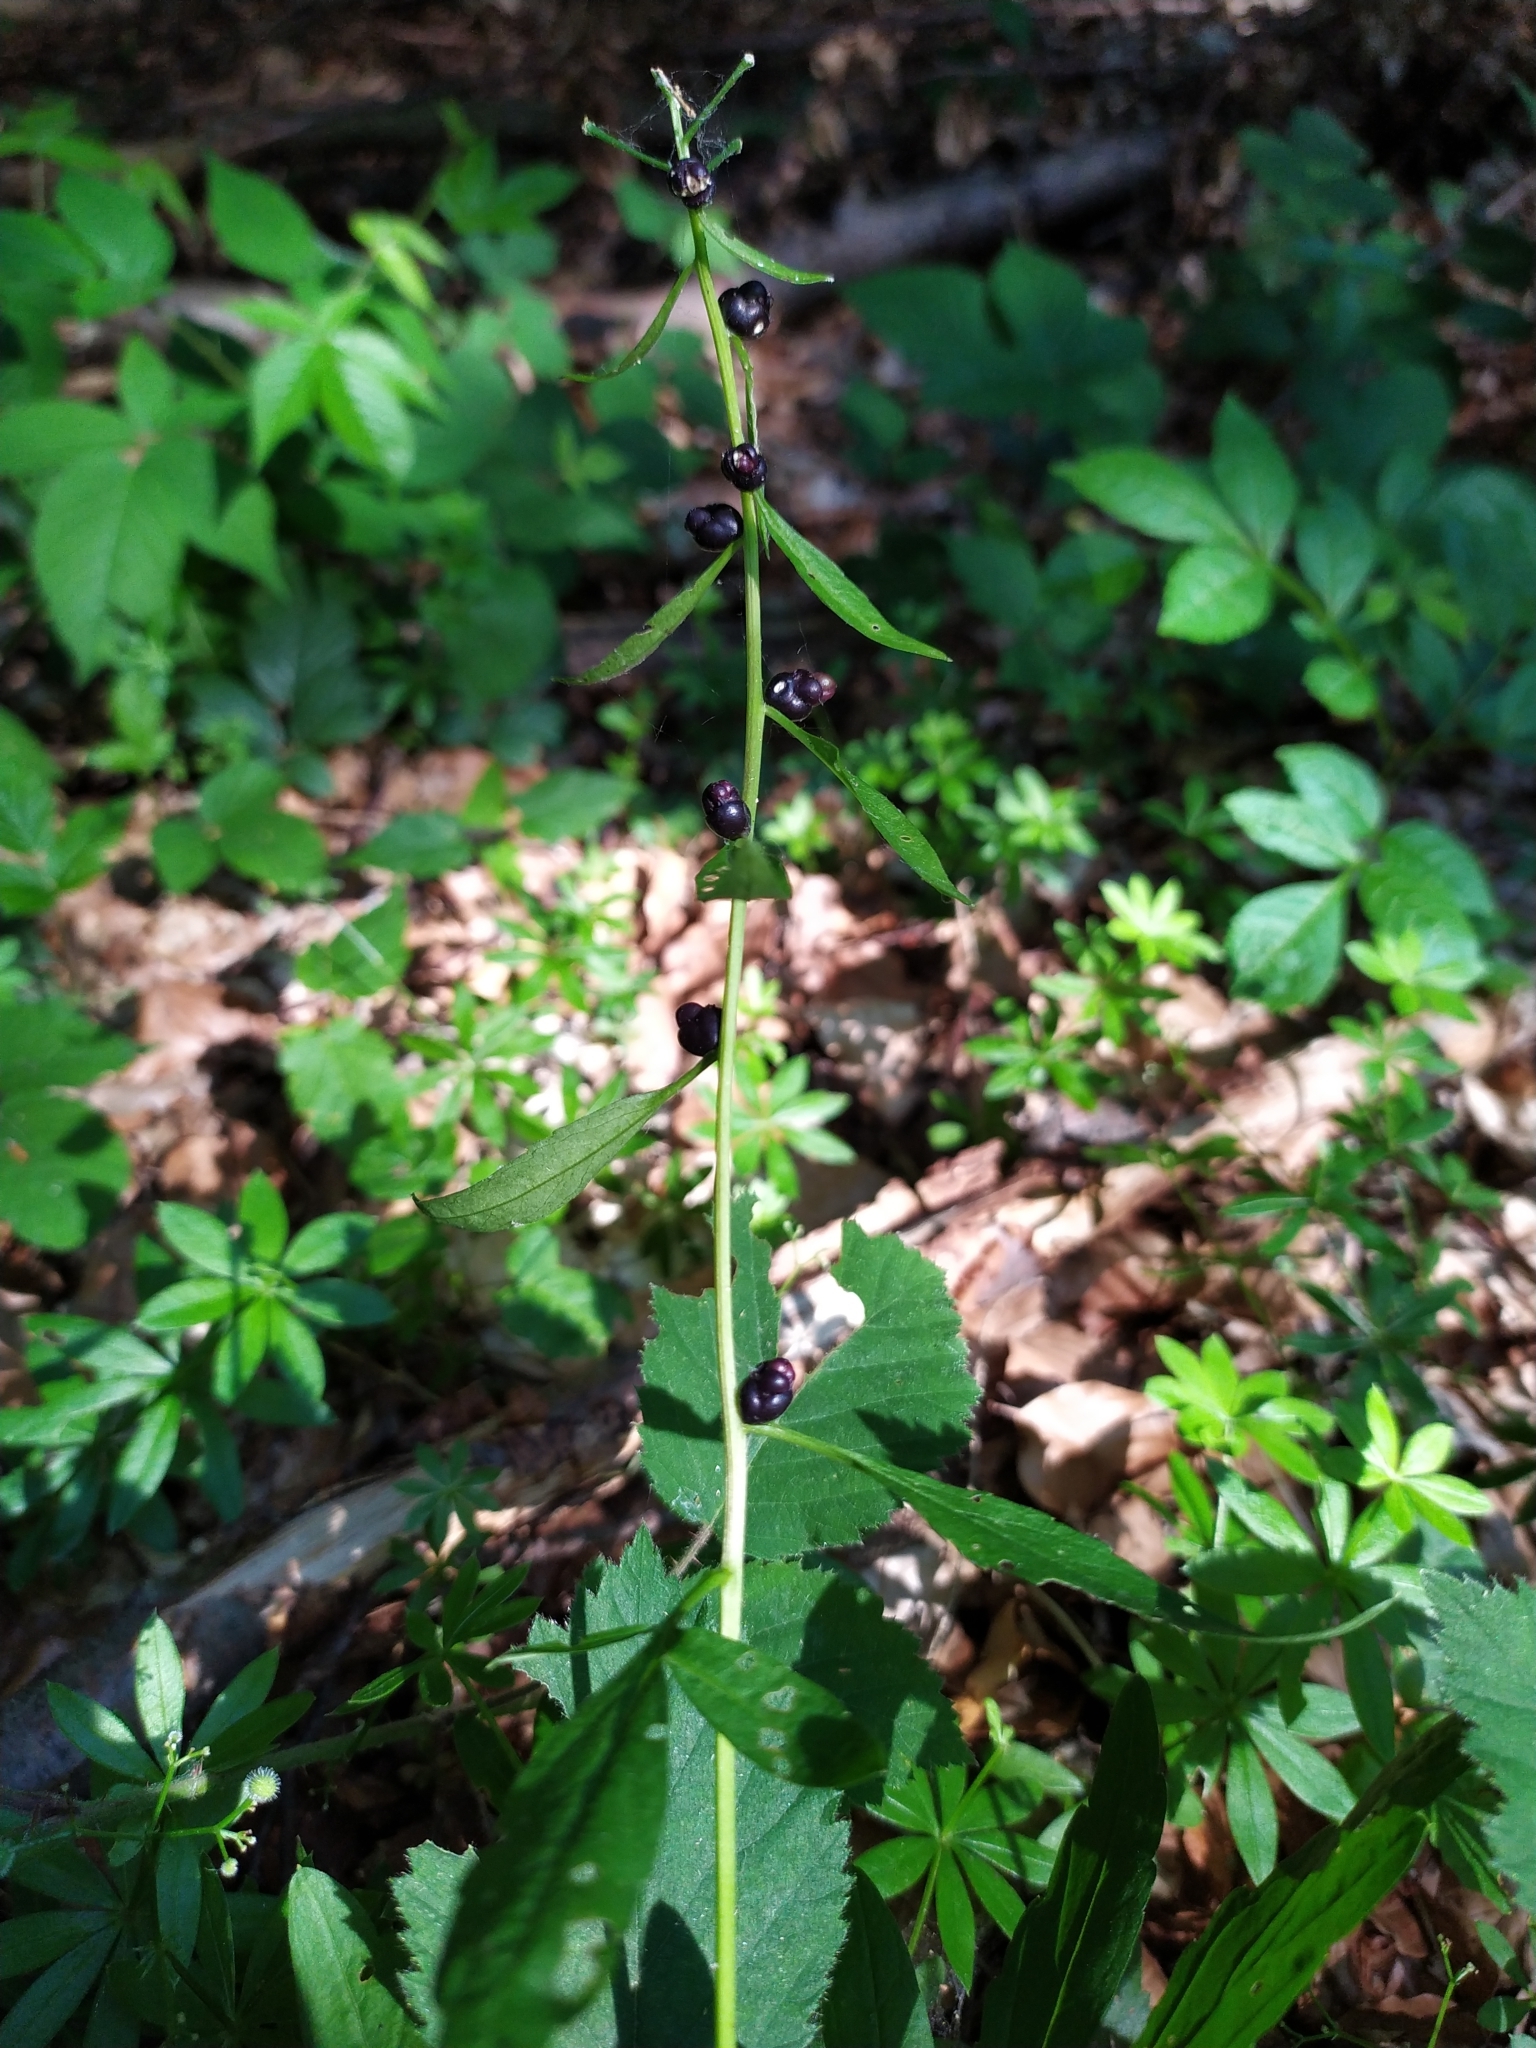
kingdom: Plantae
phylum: Tracheophyta
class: Magnoliopsida
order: Brassicales
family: Brassicaceae
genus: Cardamine
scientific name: Cardamine bulbifera
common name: Coralroot bittercress
